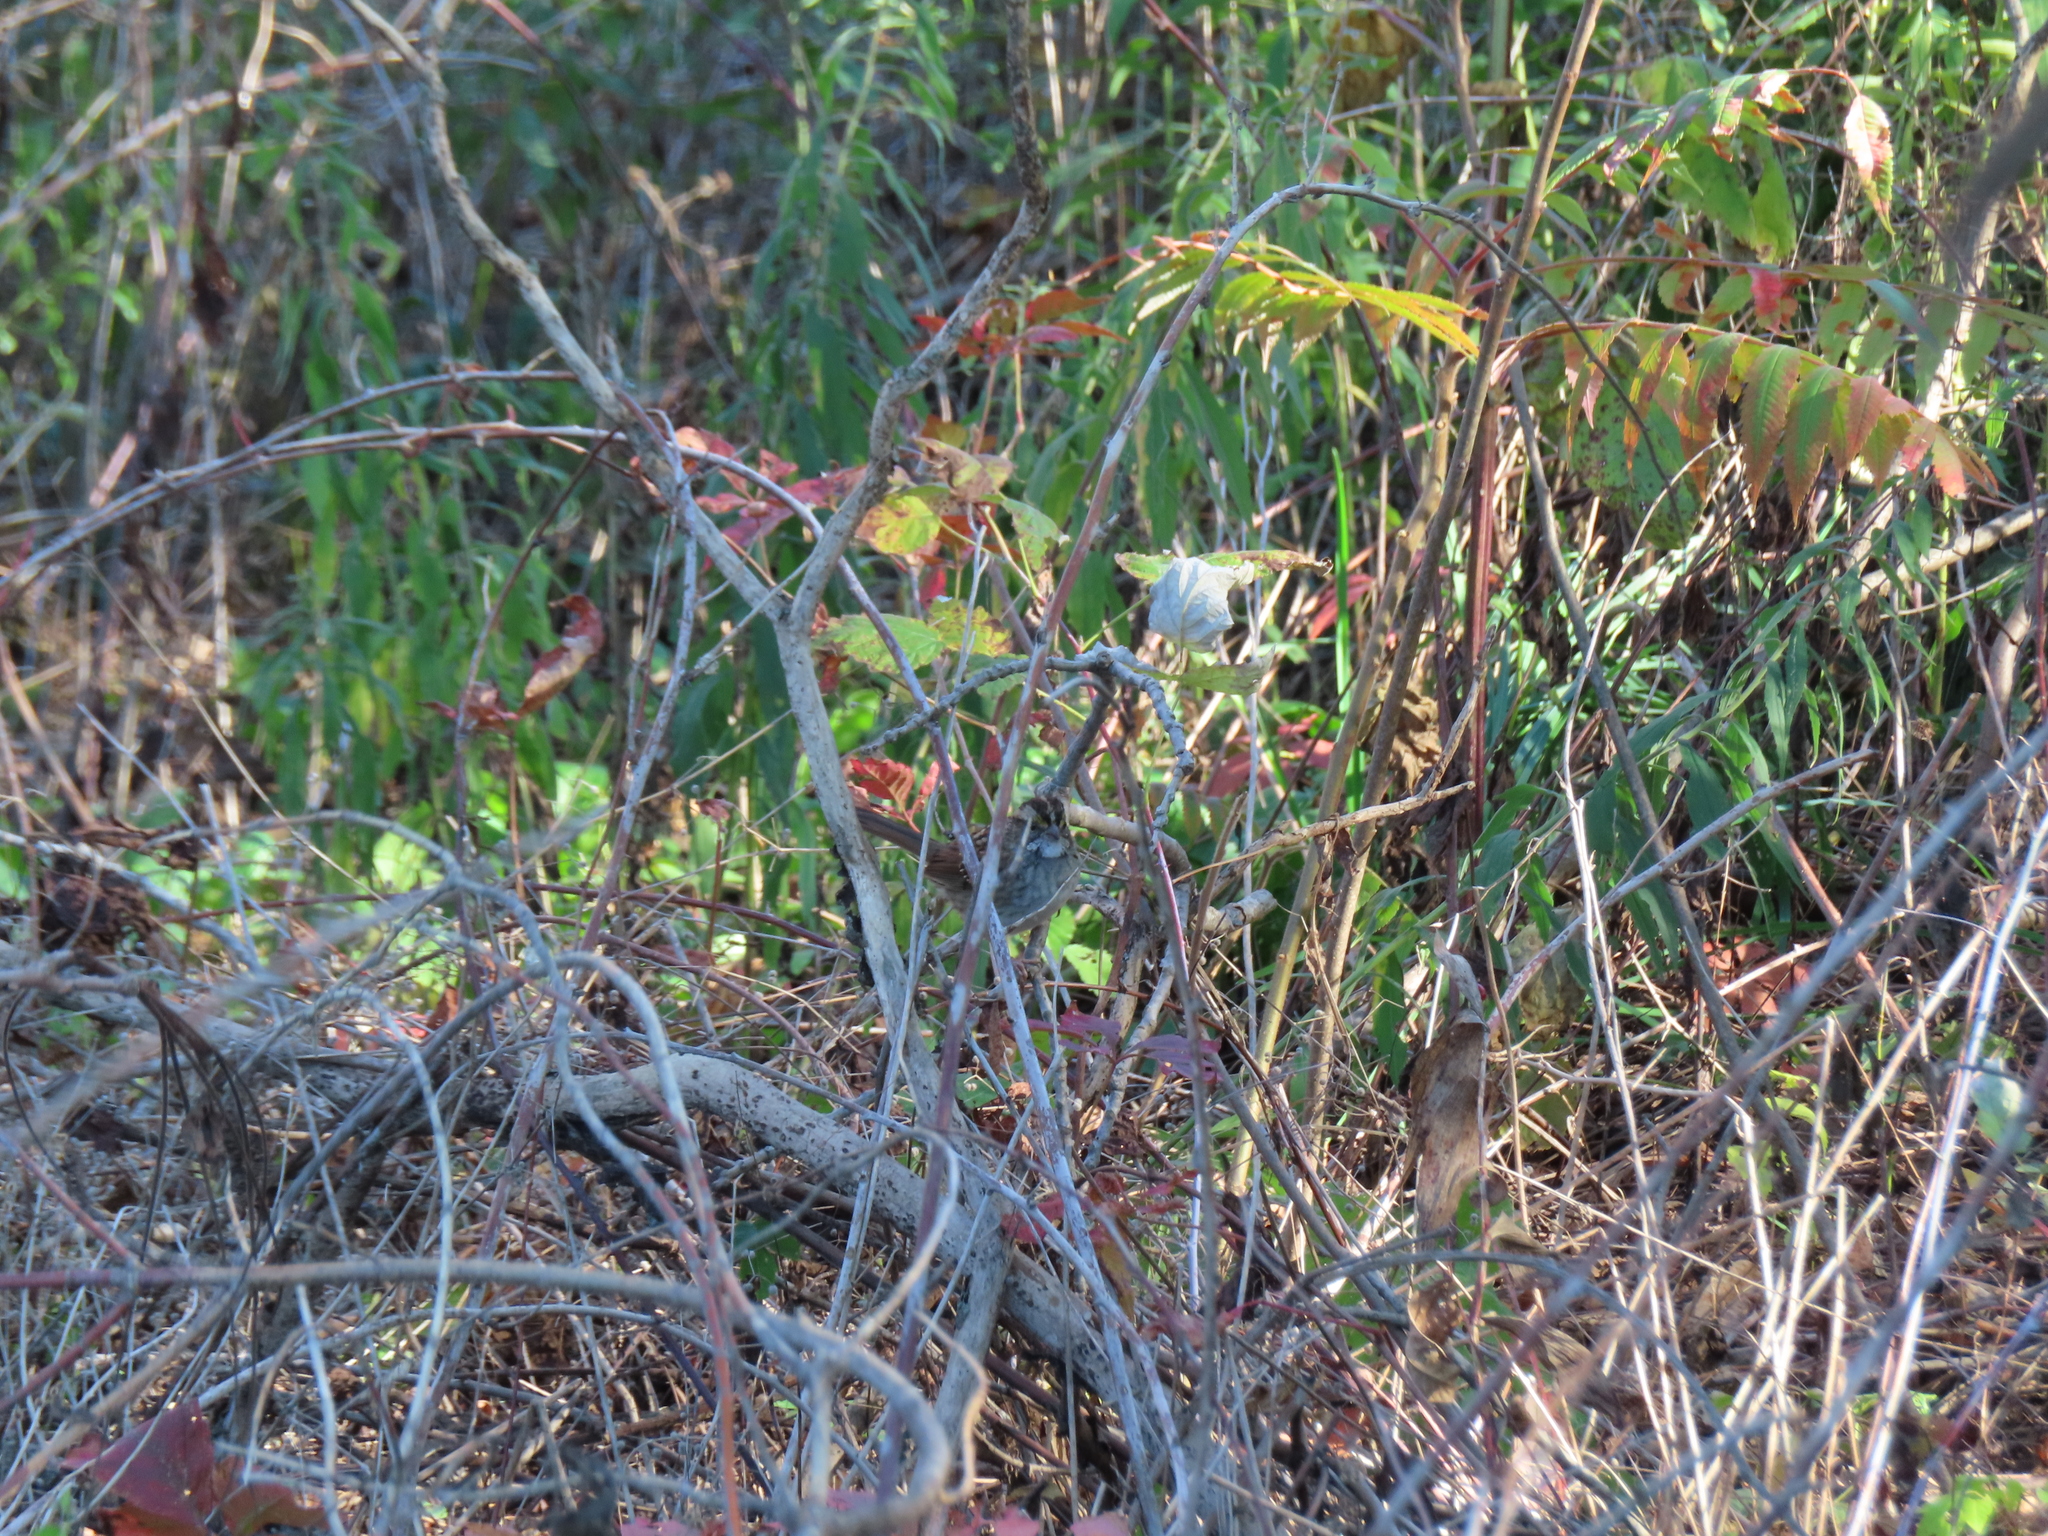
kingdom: Animalia
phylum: Chordata
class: Aves
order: Passeriformes
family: Passerellidae
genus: Zonotrichia
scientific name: Zonotrichia albicollis
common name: White-throated sparrow
